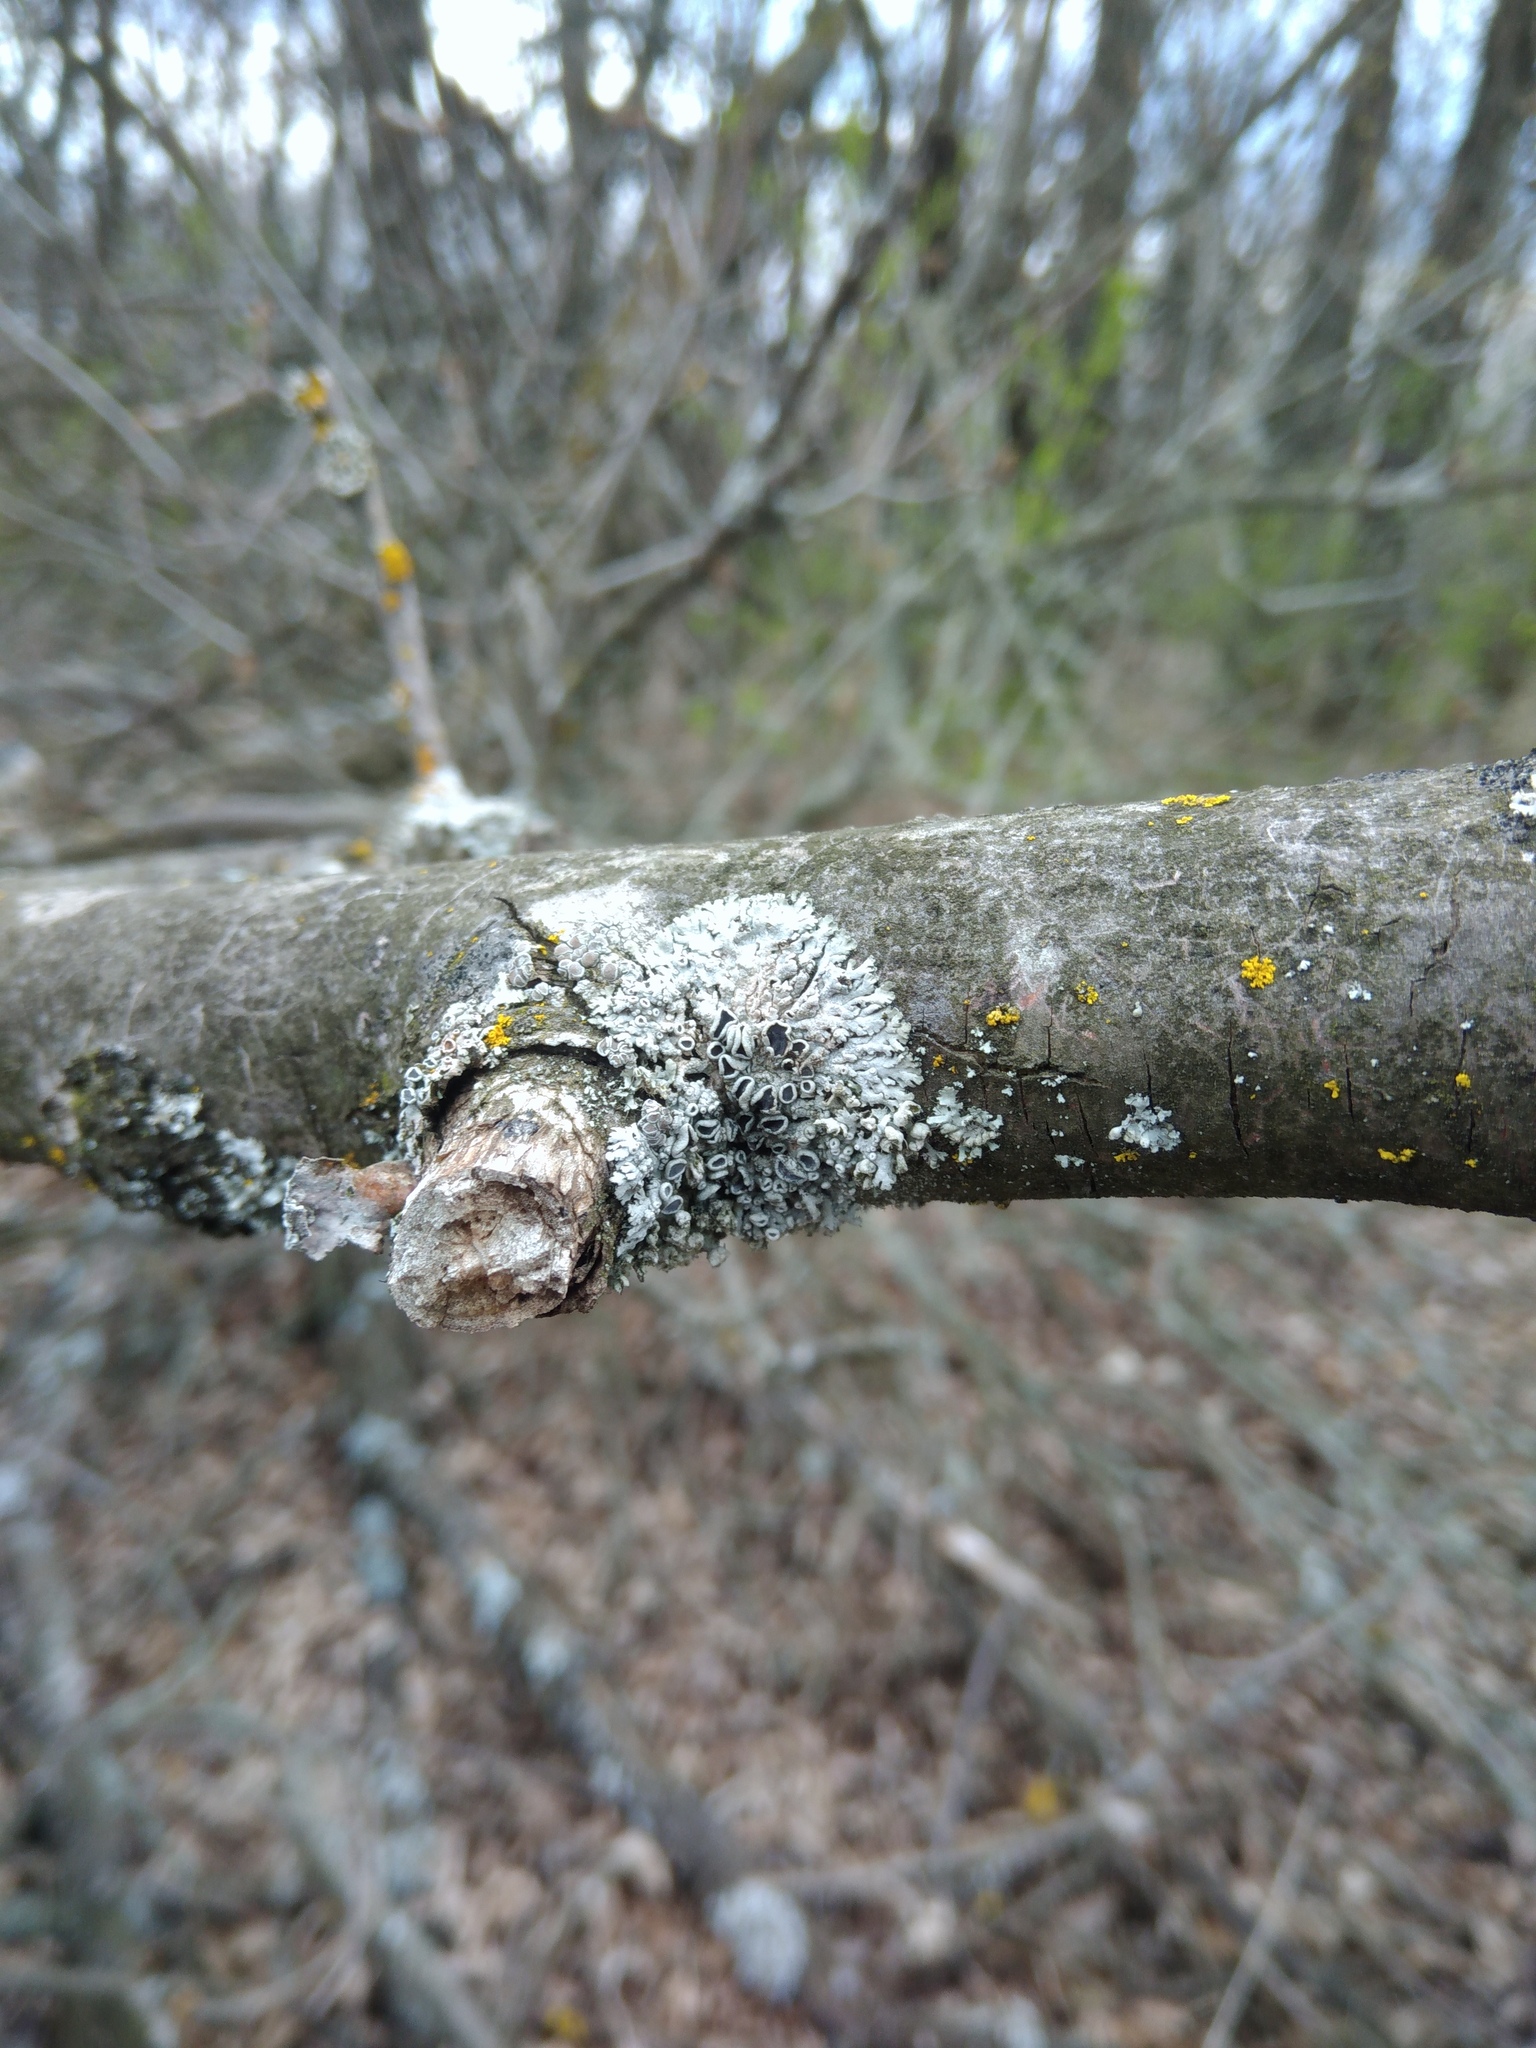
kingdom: Fungi
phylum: Ascomycota
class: Lecanoromycetes
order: Caliciales
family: Physciaceae
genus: Physcia
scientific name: Physcia stellaris
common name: Star rosette lichen
